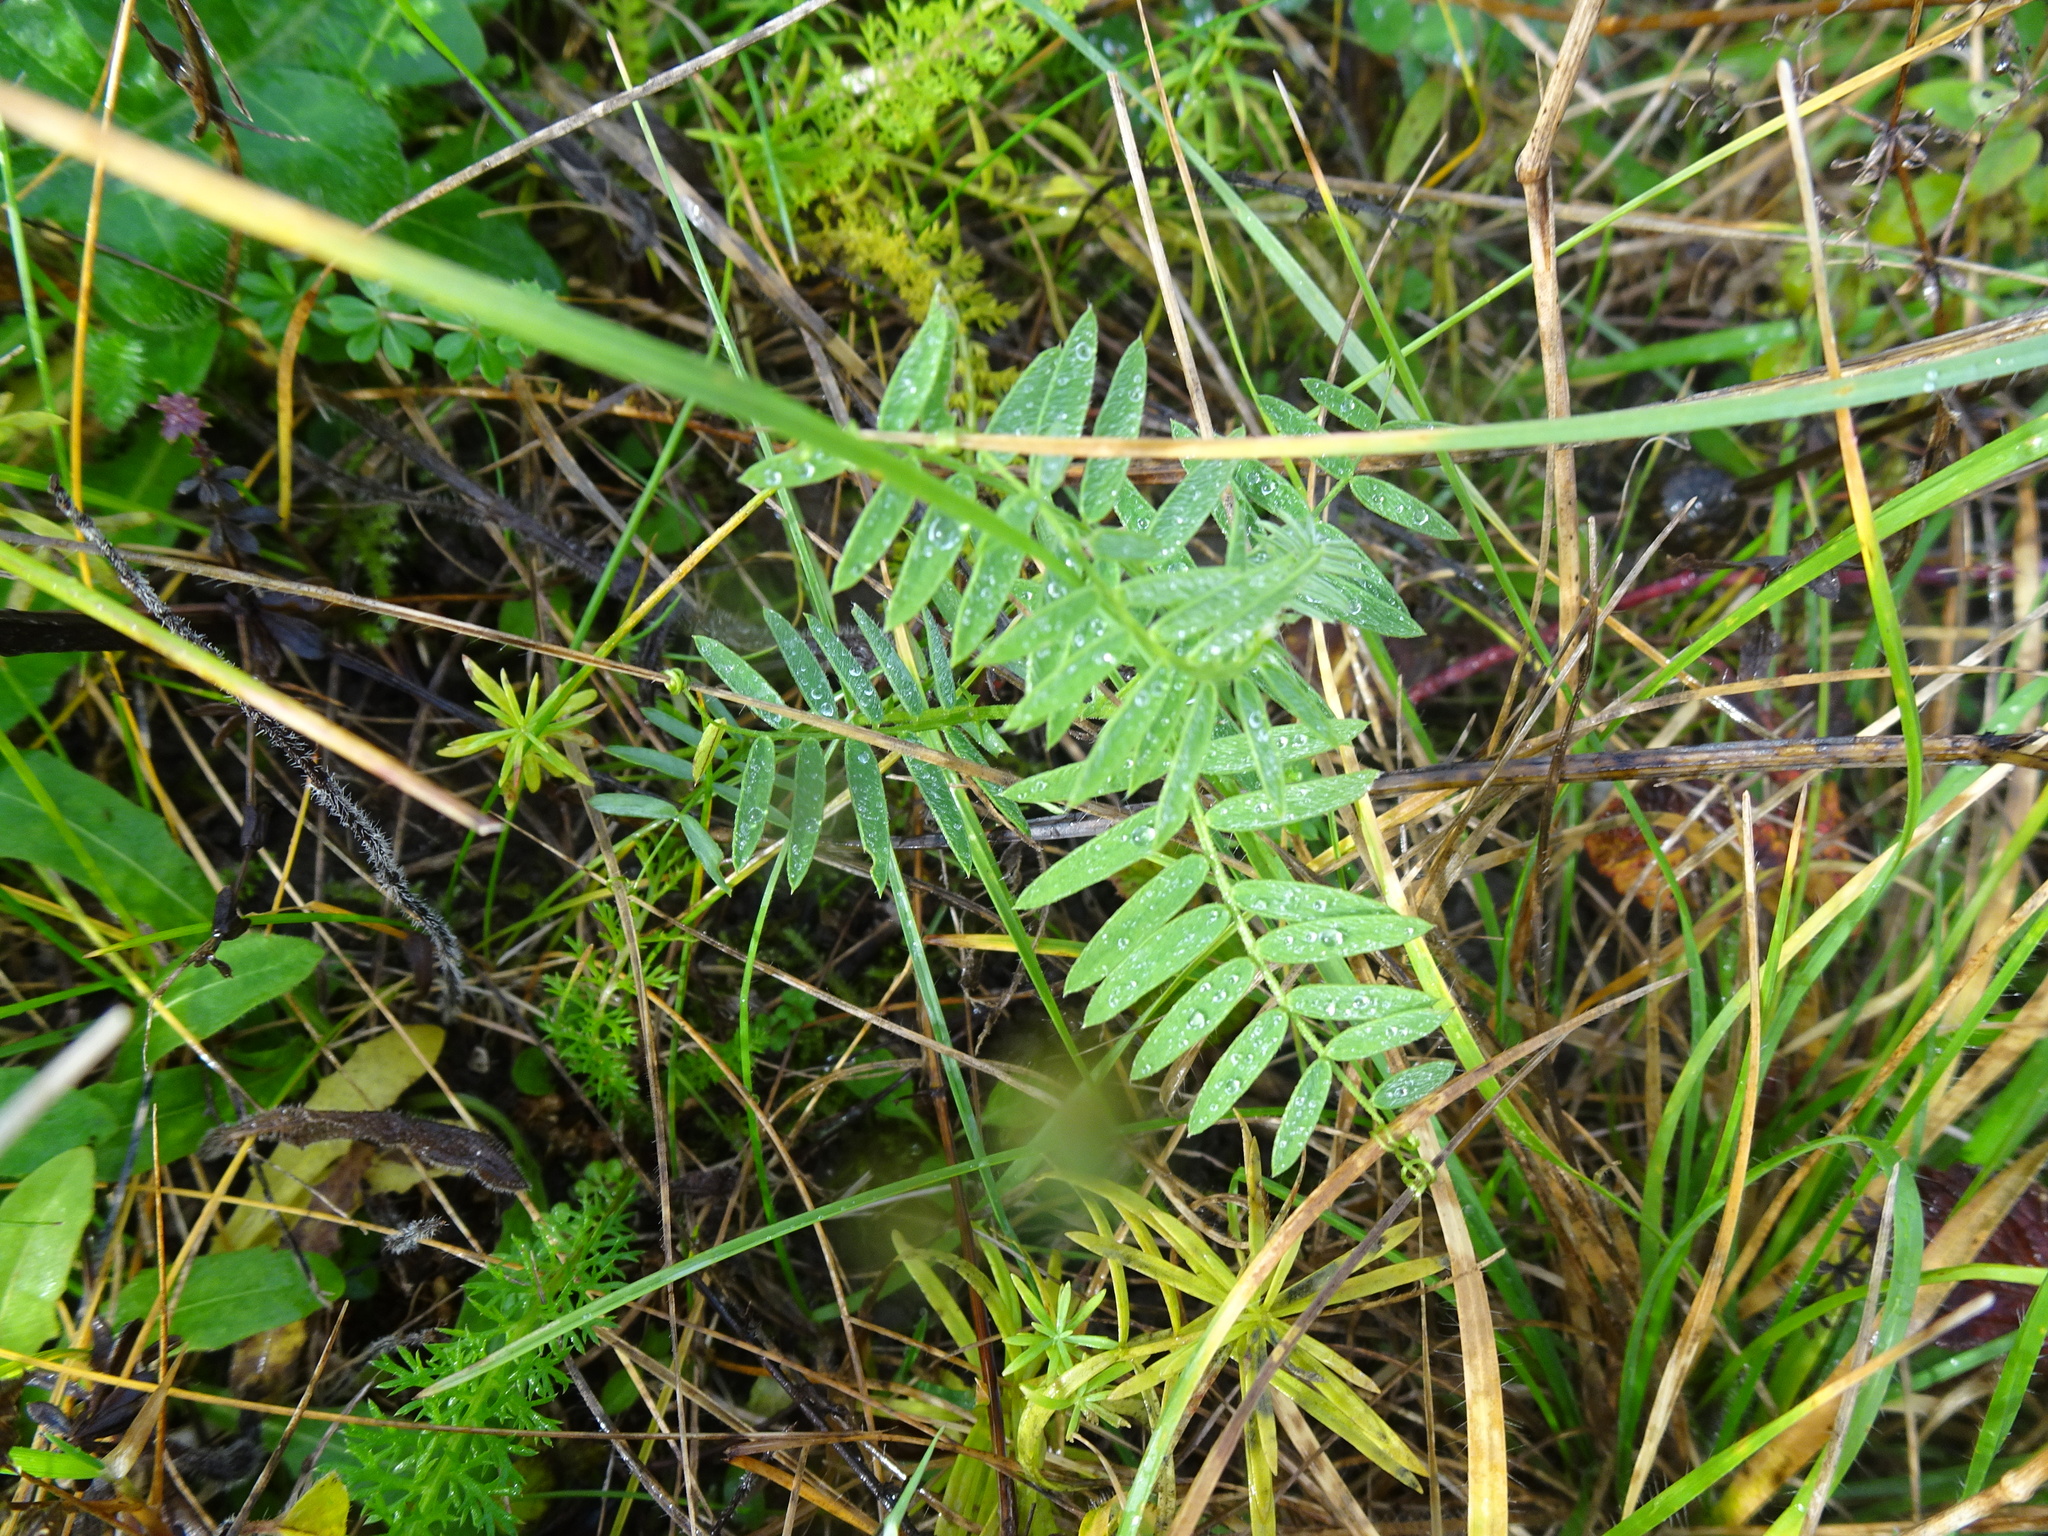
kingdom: Plantae
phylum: Tracheophyta
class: Magnoliopsida
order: Fabales
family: Fabaceae
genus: Vicia
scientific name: Vicia sativa
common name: Garden vetch
